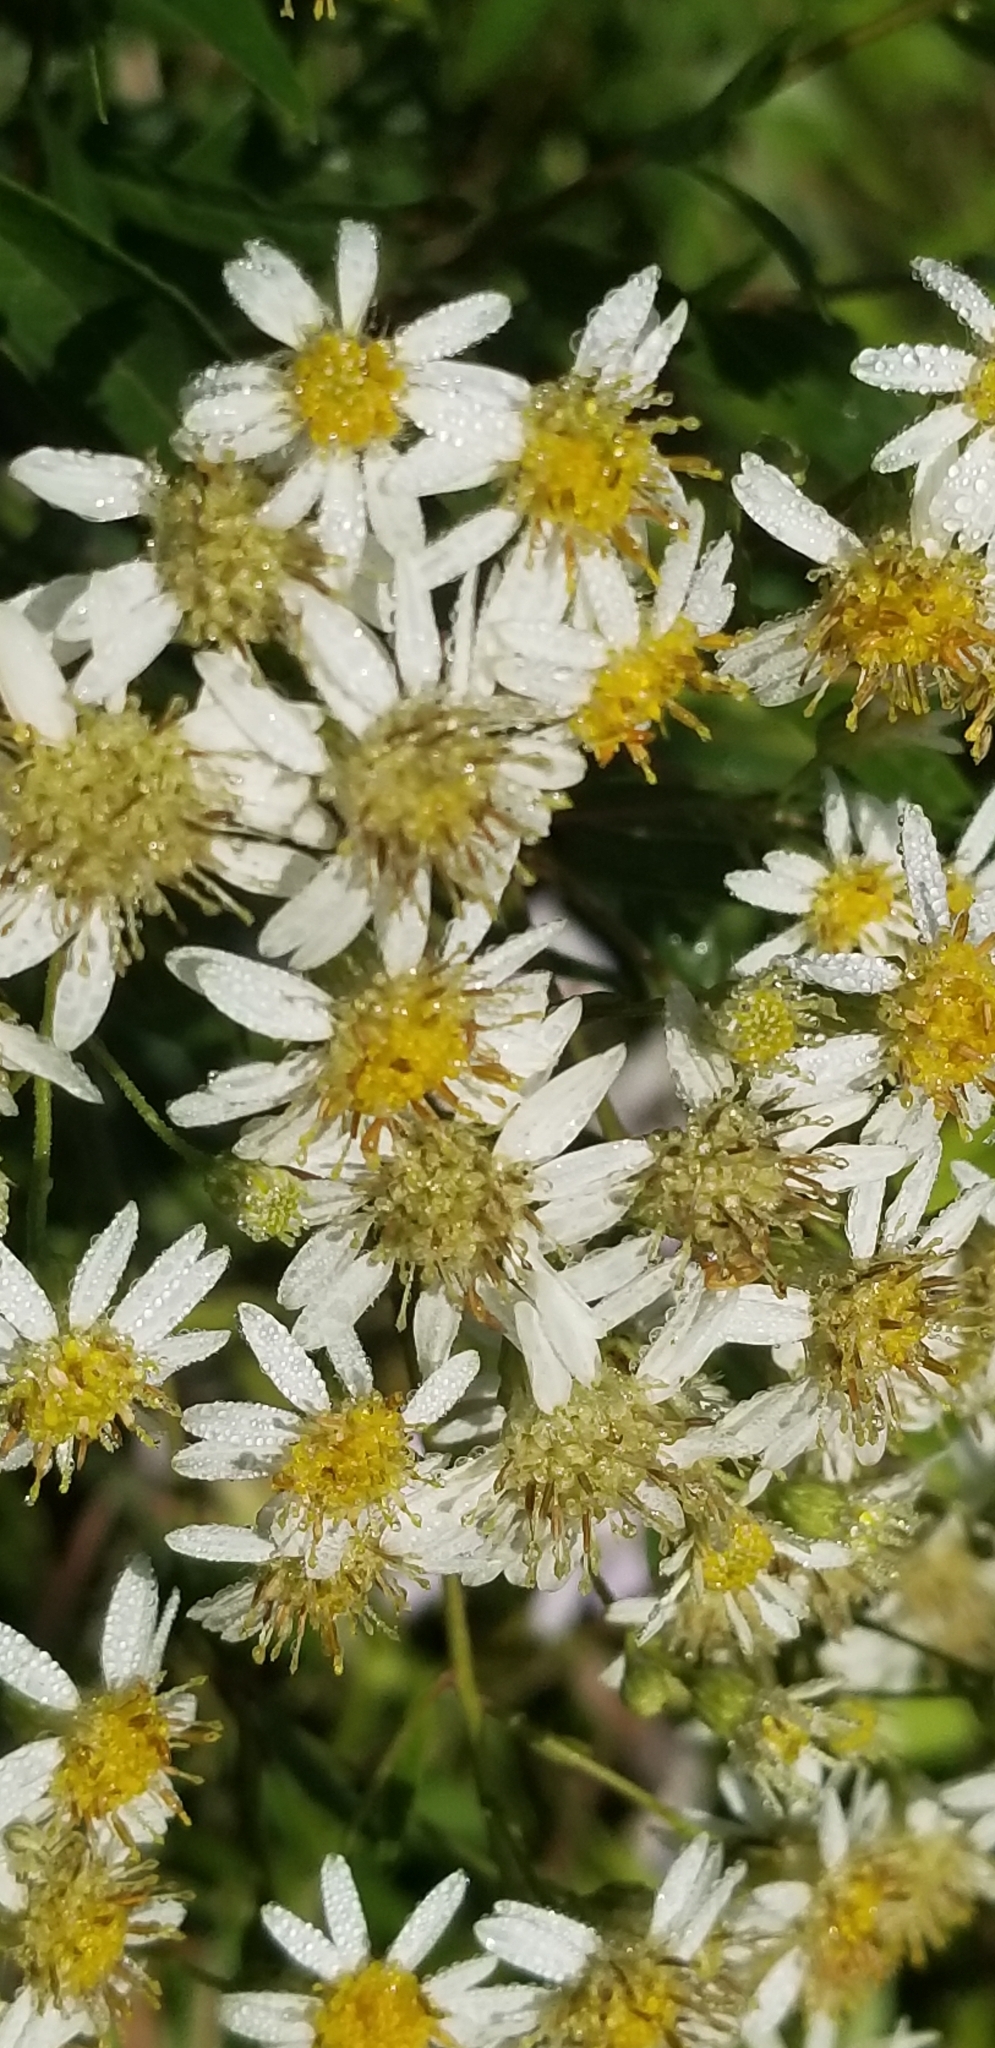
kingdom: Plantae
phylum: Tracheophyta
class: Magnoliopsida
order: Asterales
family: Asteraceae
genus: Doellingeria
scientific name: Doellingeria umbellata
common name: Flat-top white aster
